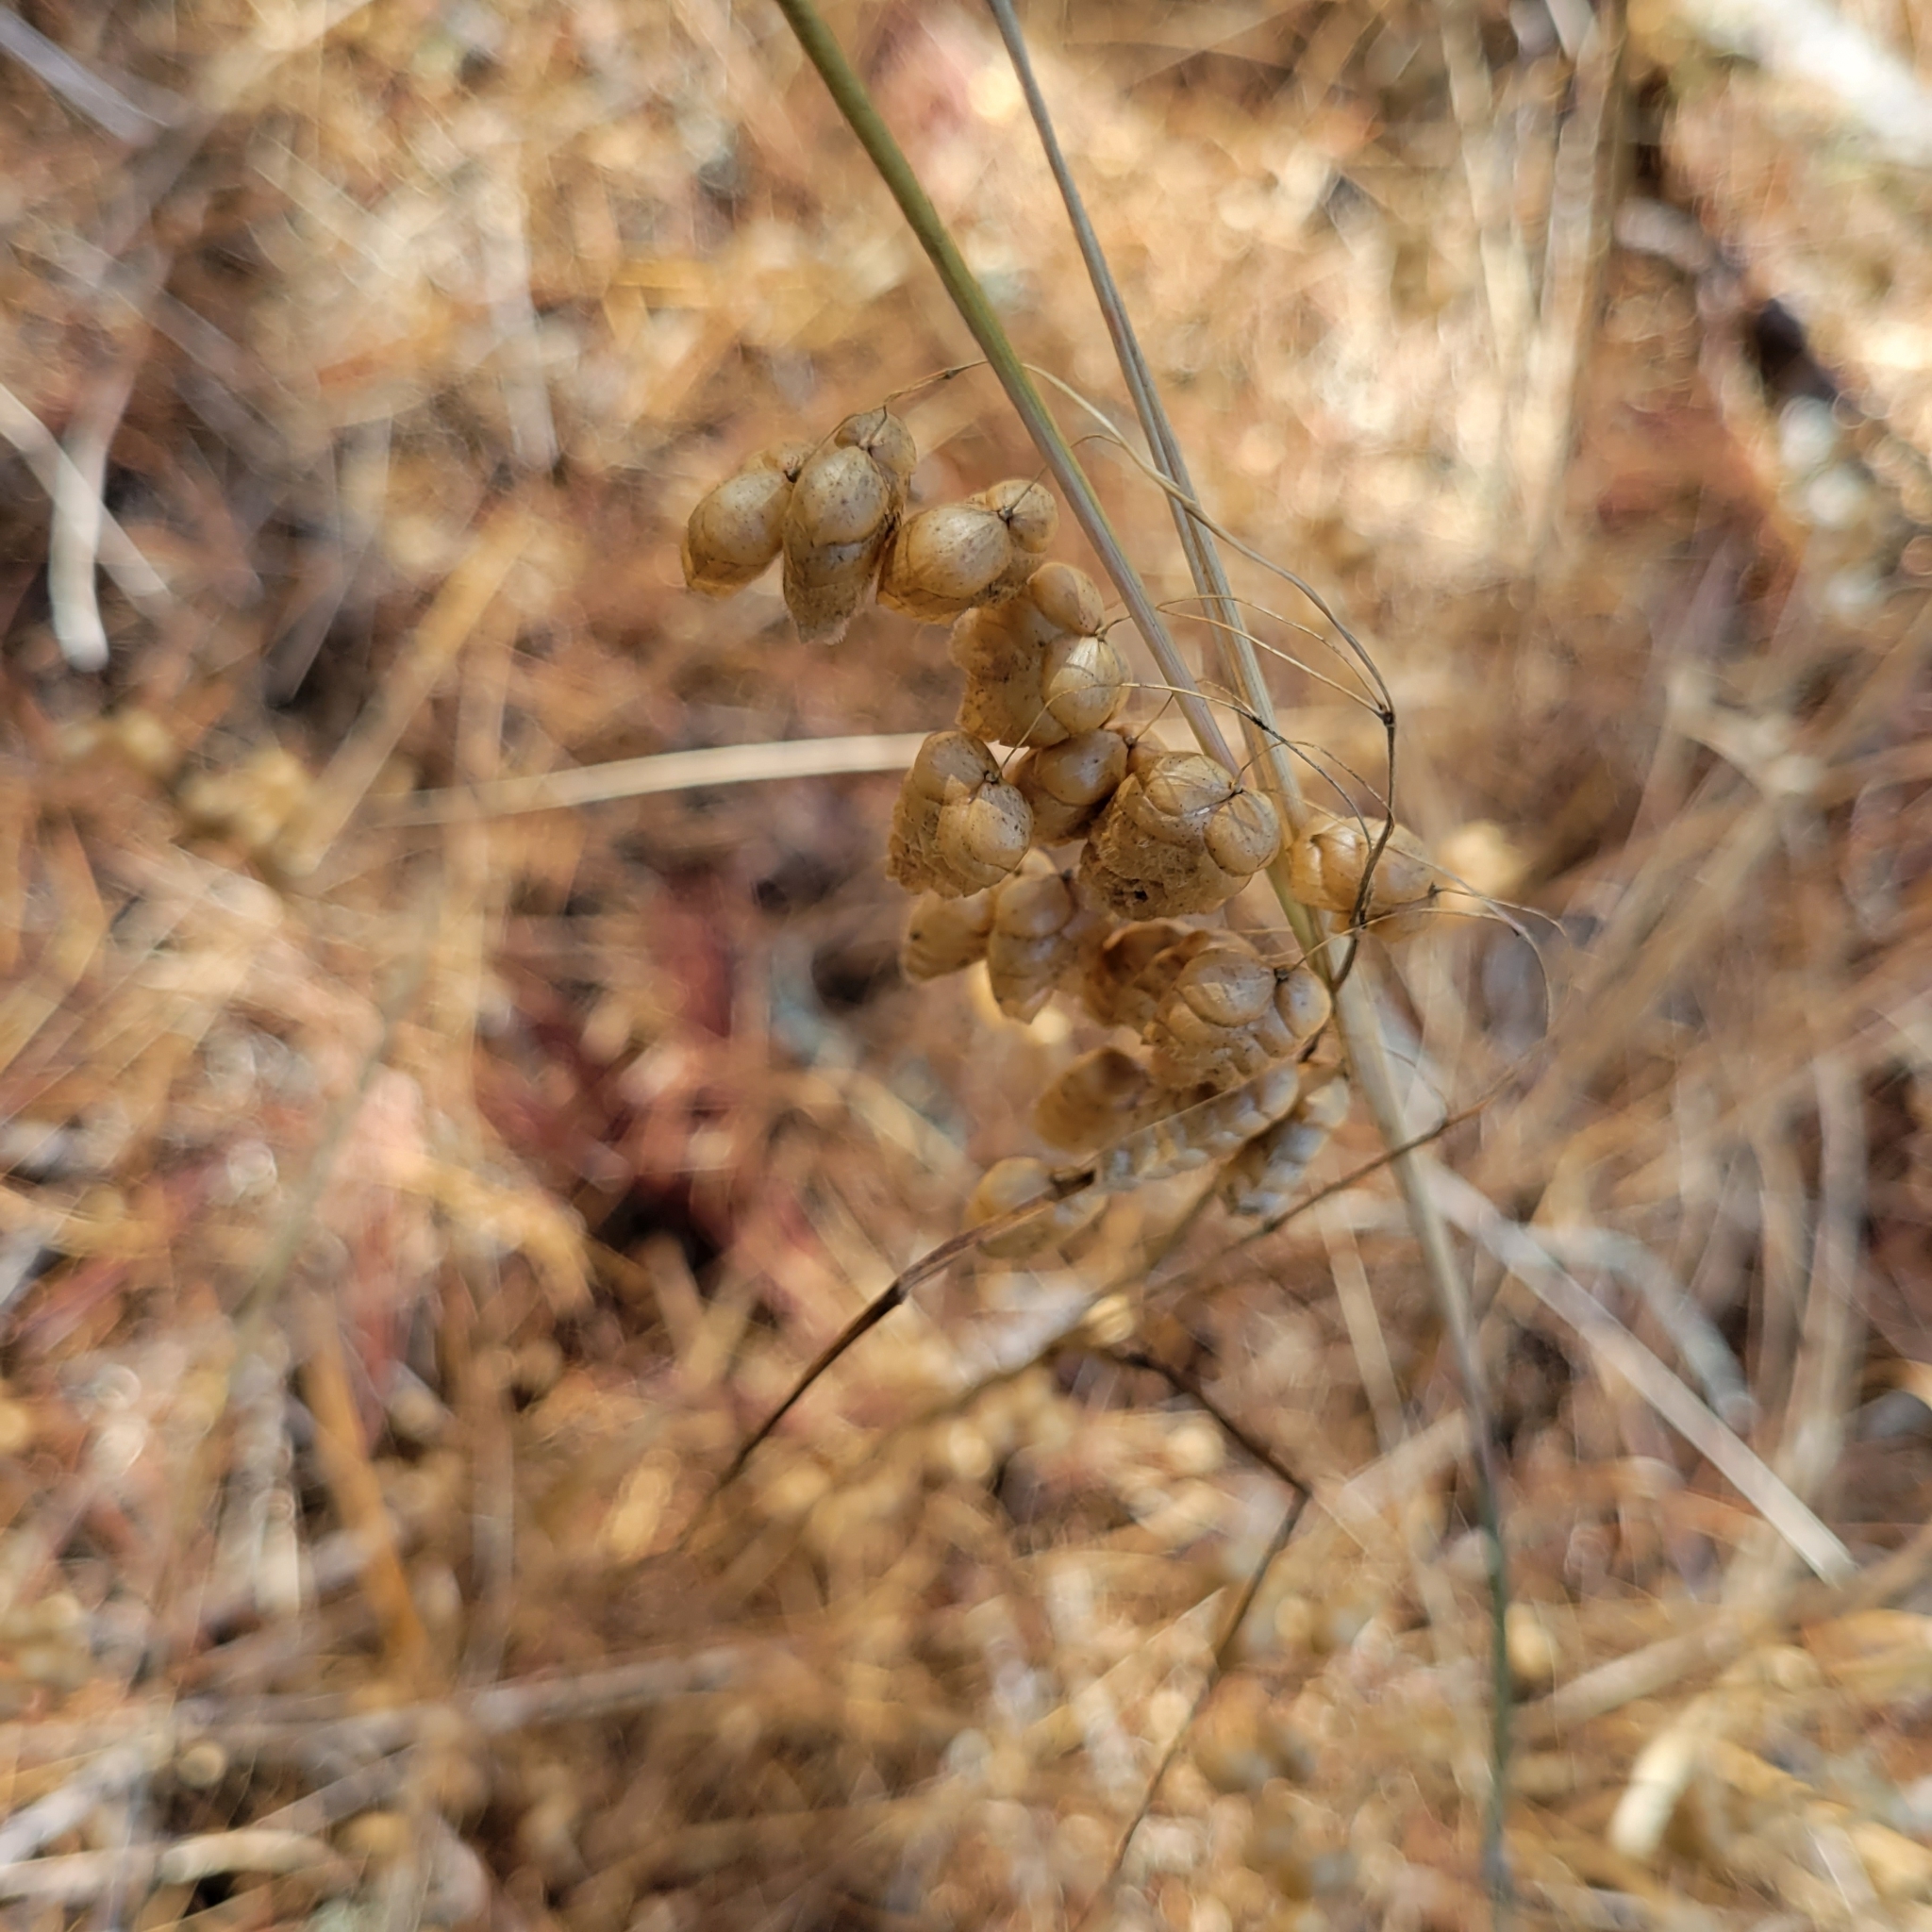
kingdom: Plantae
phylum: Tracheophyta
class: Liliopsida
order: Poales
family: Poaceae
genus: Briza
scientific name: Briza maxima
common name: Big quakinggrass
